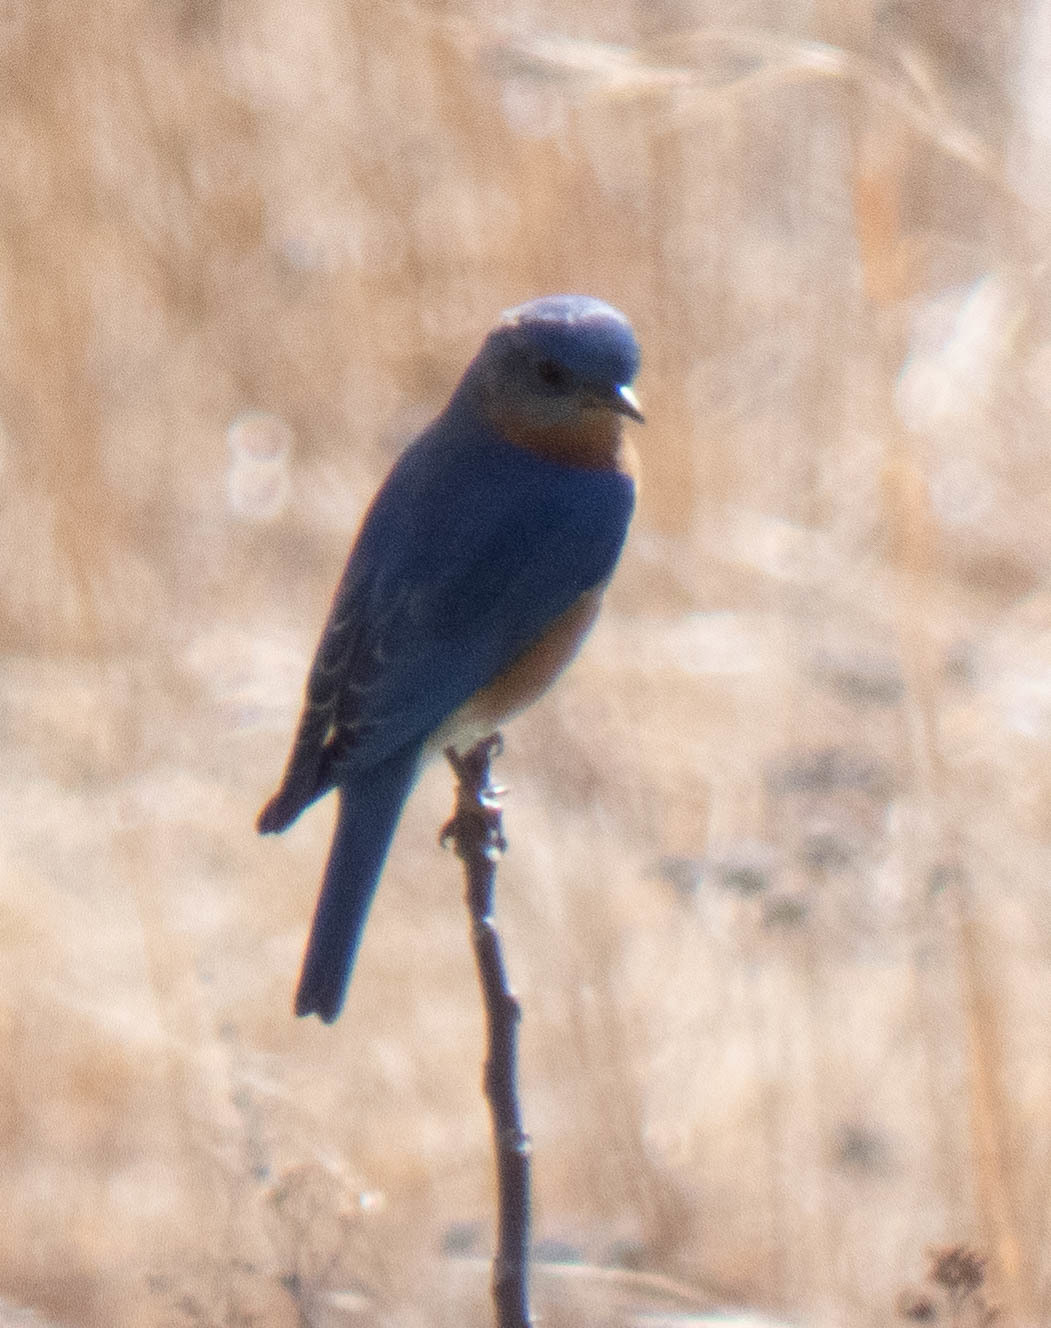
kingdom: Animalia
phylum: Chordata
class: Aves
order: Passeriformes
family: Turdidae
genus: Sialia
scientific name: Sialia sialis
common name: Eastern bluebird
